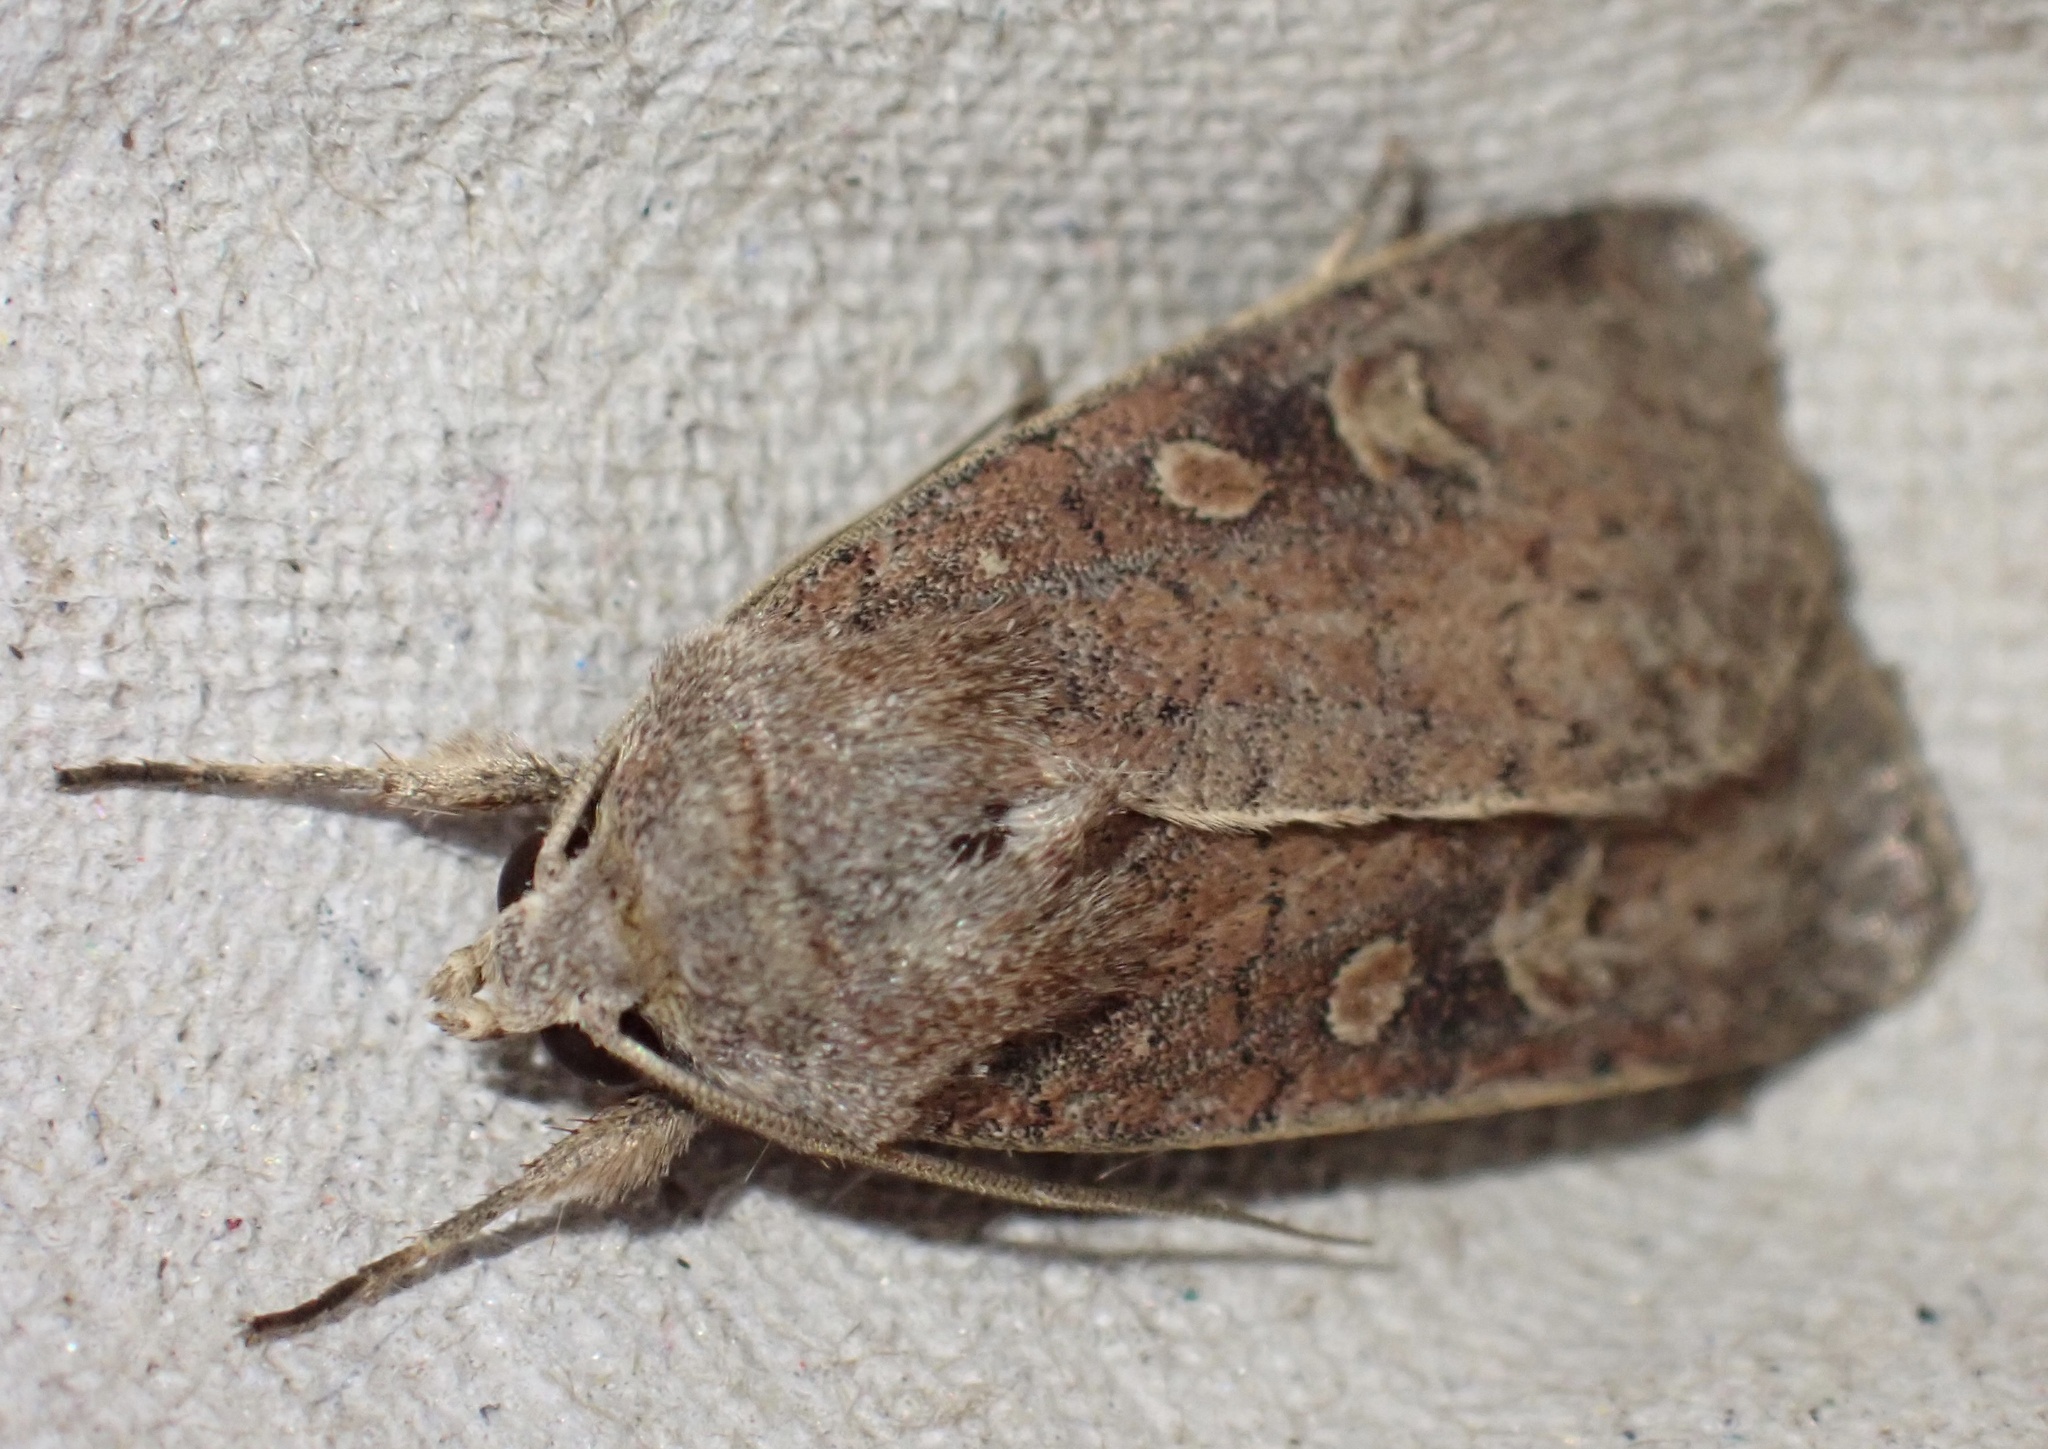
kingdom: Animalia
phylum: Arthropoda
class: Insecta
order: Lepidoptera
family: Noctuidae
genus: Xestia
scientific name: Xestia xanthographa
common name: Square-spot rustic
